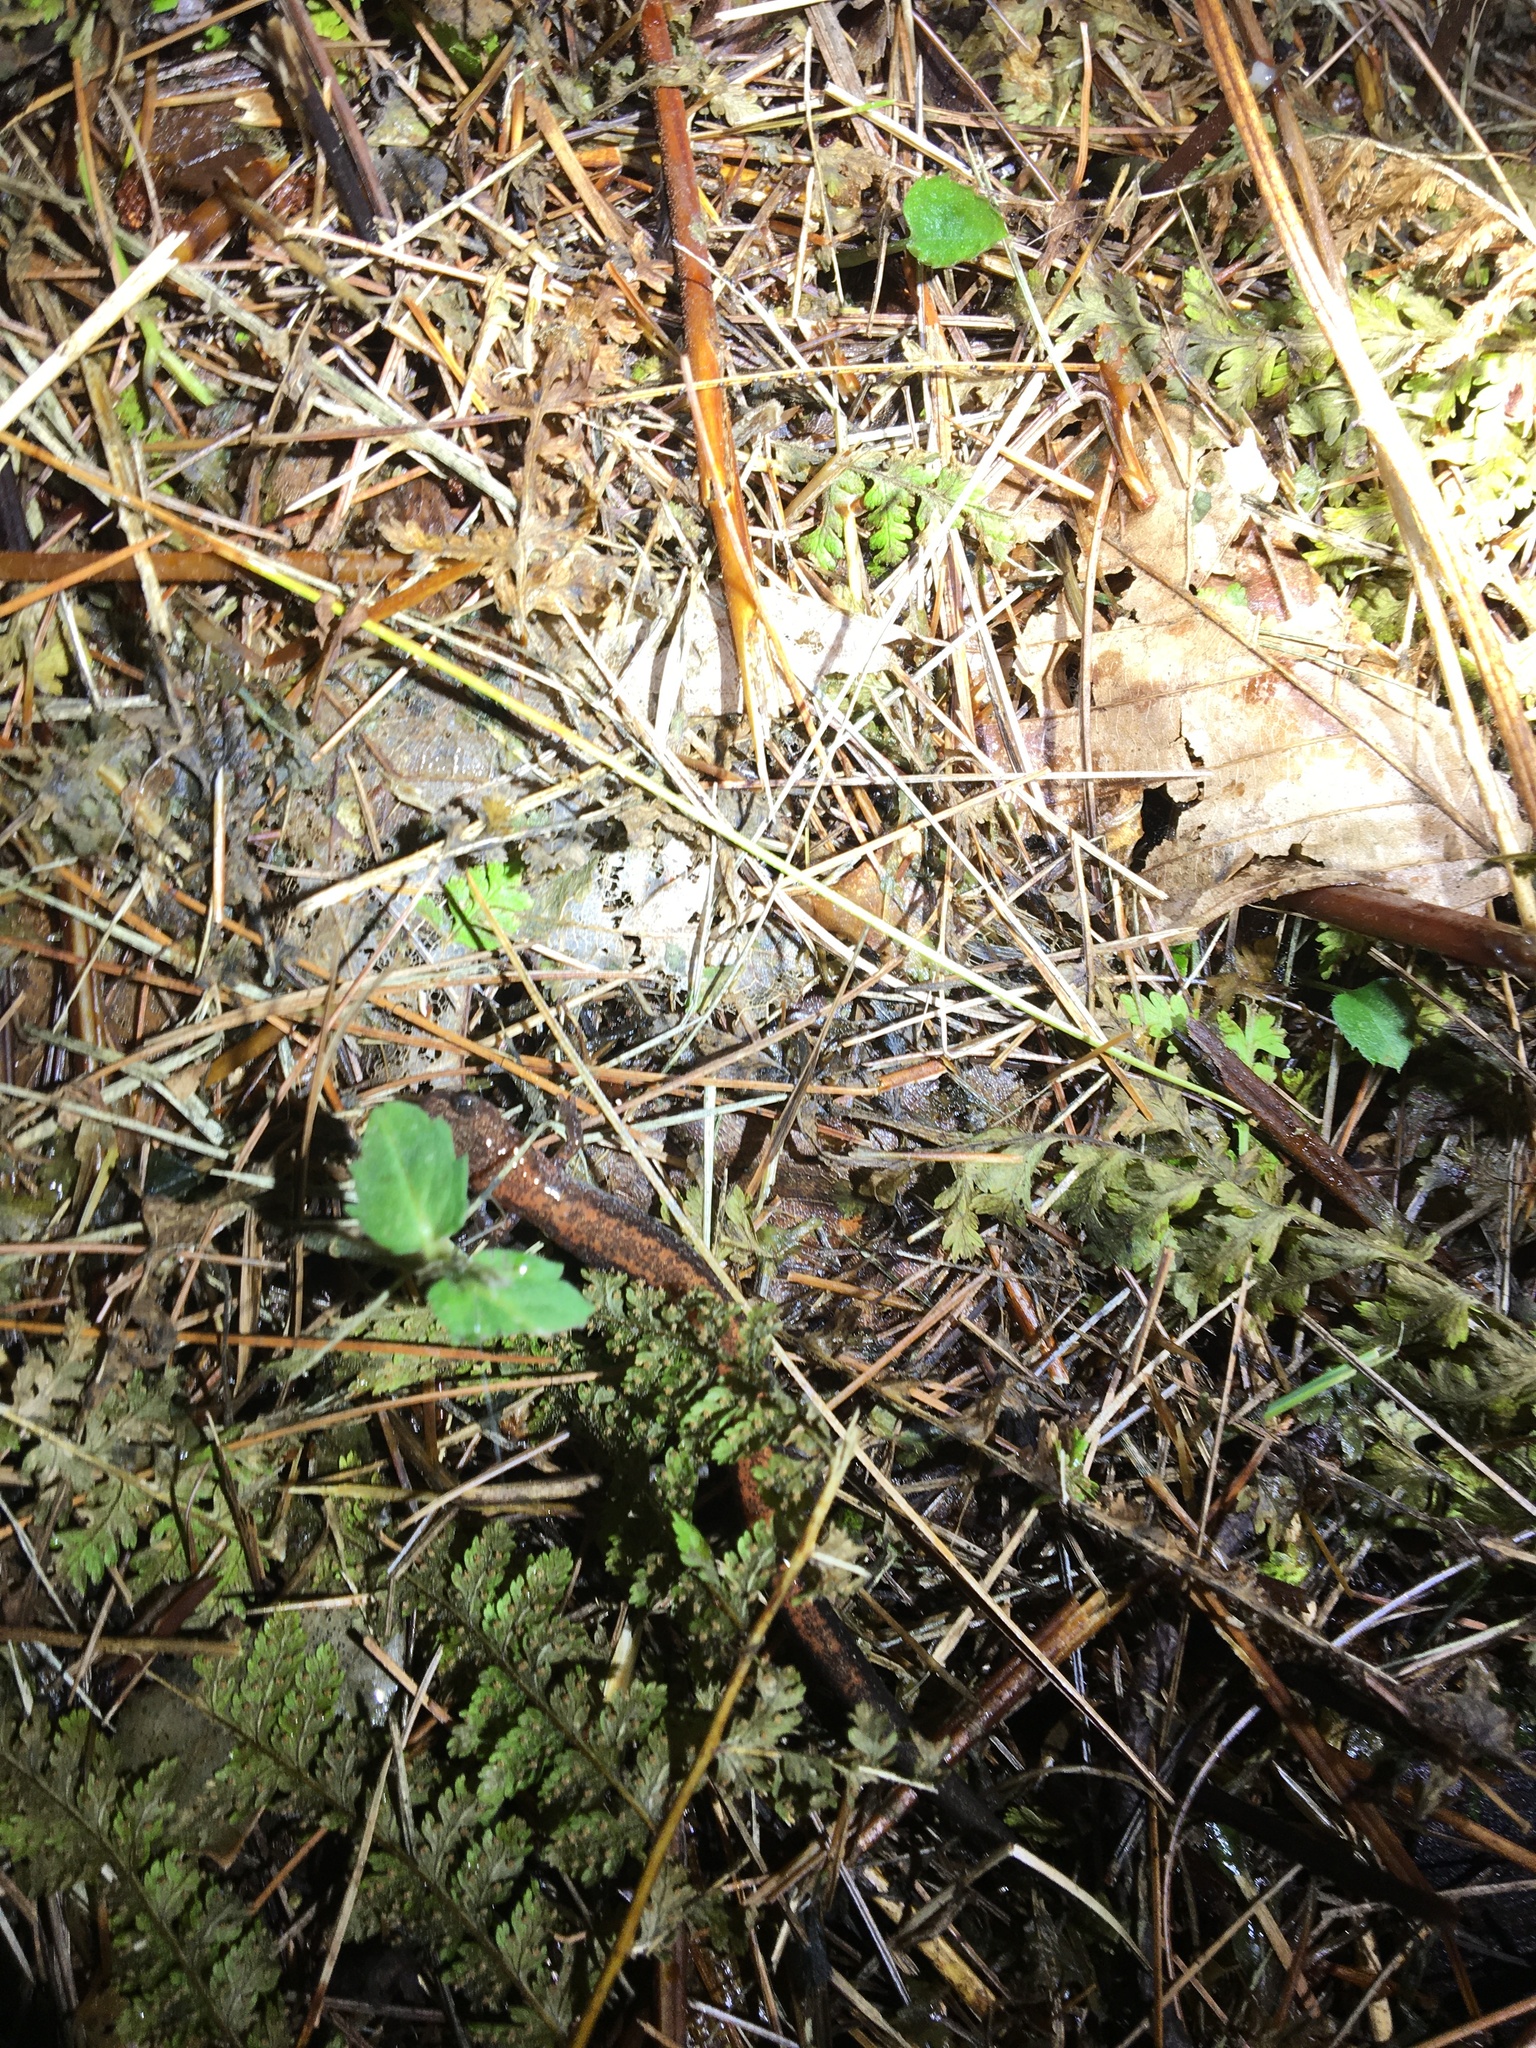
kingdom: Animalia
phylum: Chordata
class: Amphibia
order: Caudata
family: Plethodontidae
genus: Plethodon
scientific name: Plethodon cinereus
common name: Redback salamander
